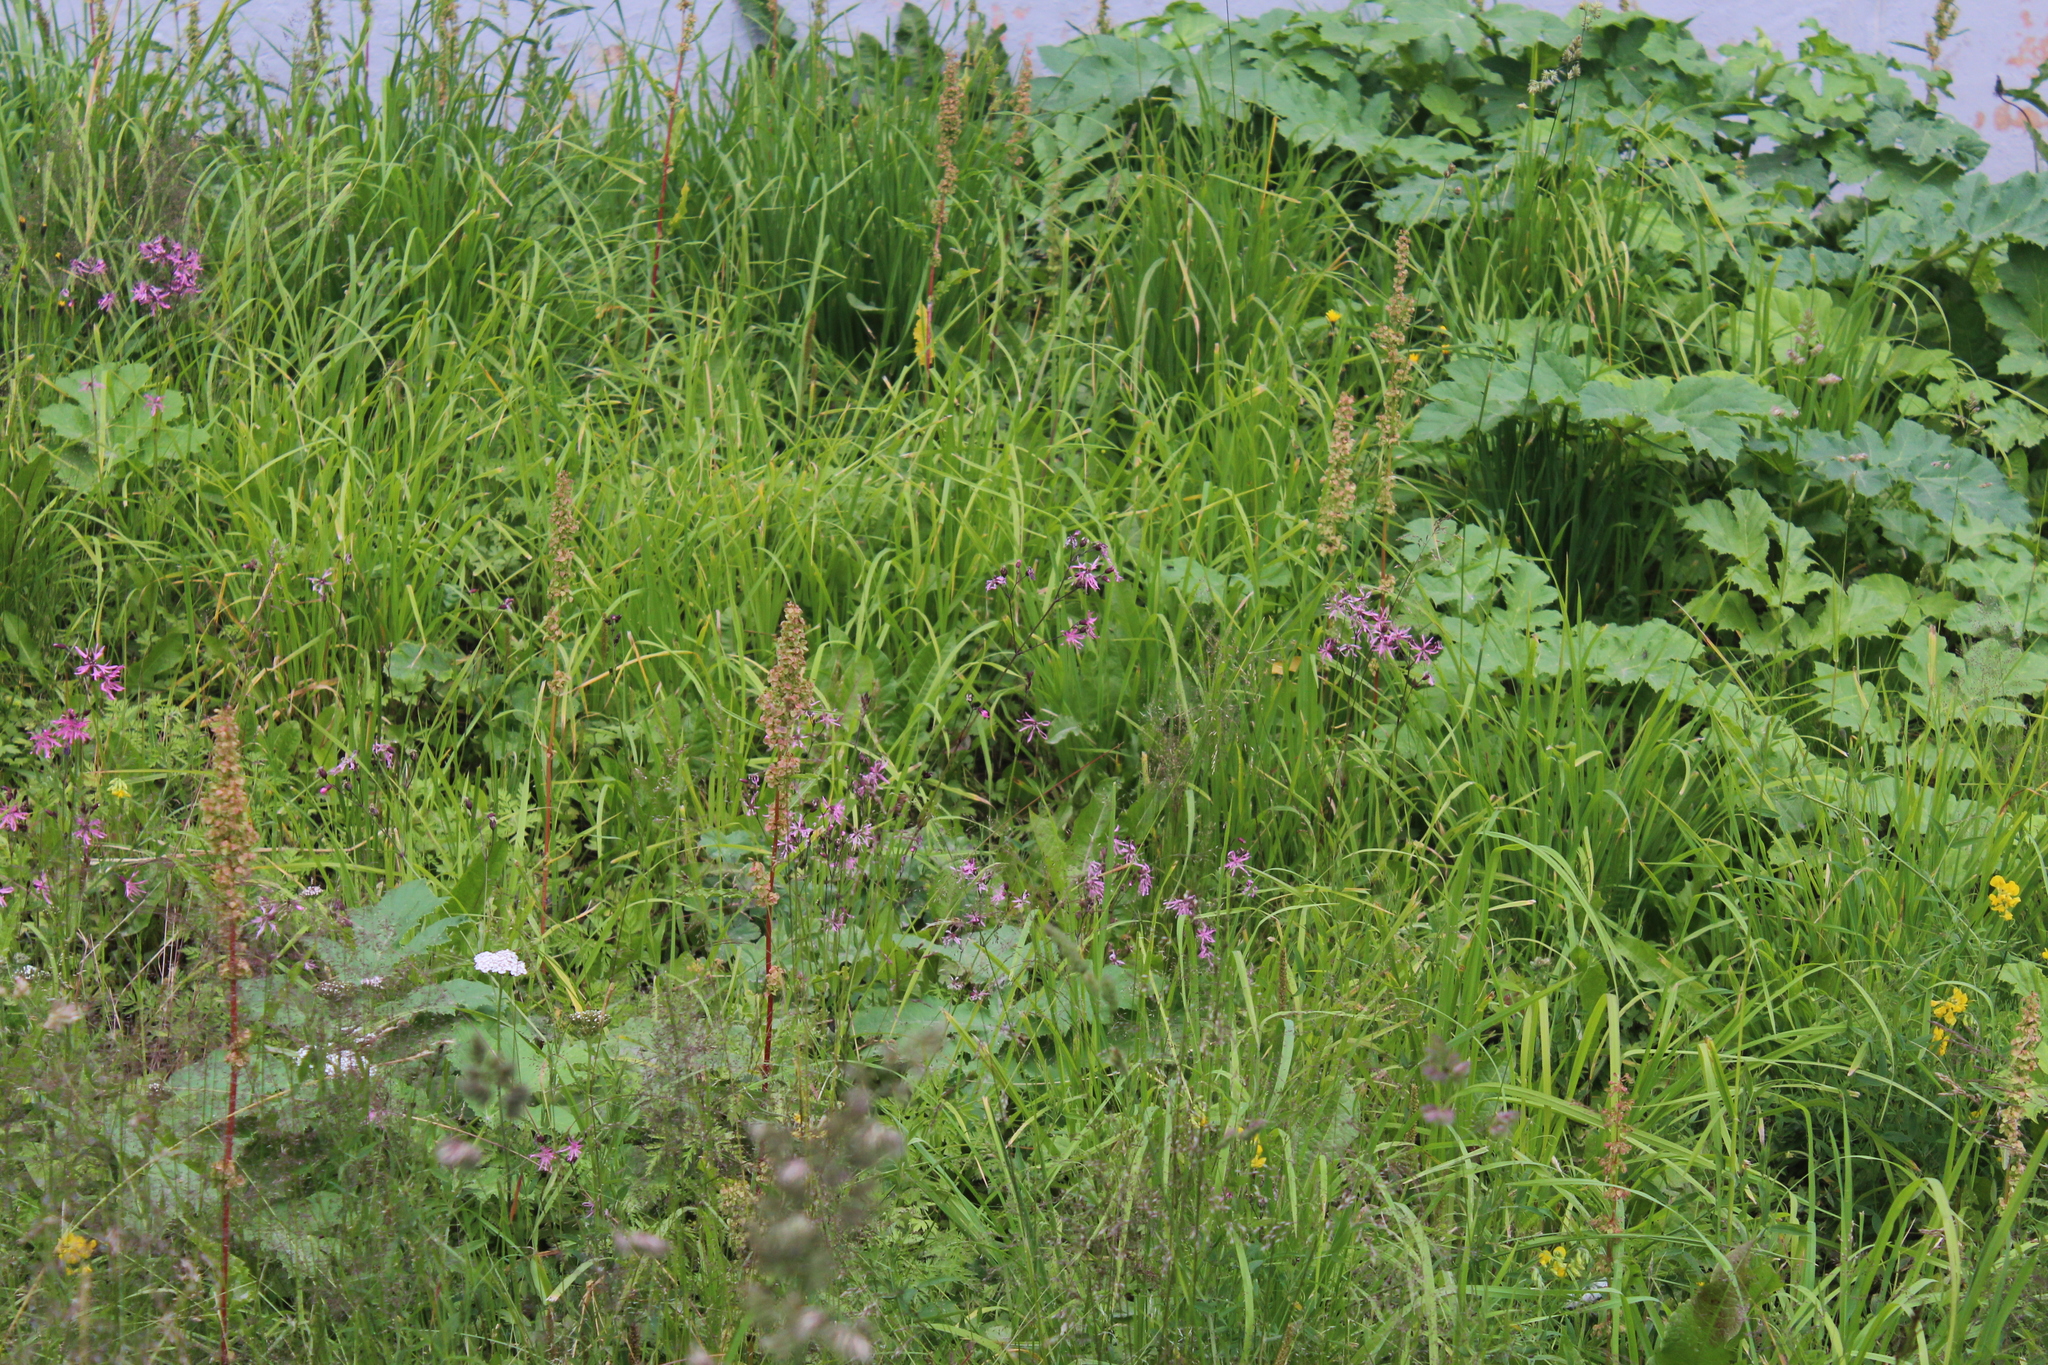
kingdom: Plantae
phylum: Tracheophyta
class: Magnoliopsida
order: Caryophyllales
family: Caryophyllaceae
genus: Silene
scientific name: Silene flos-cuculi
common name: Ragged-robin
